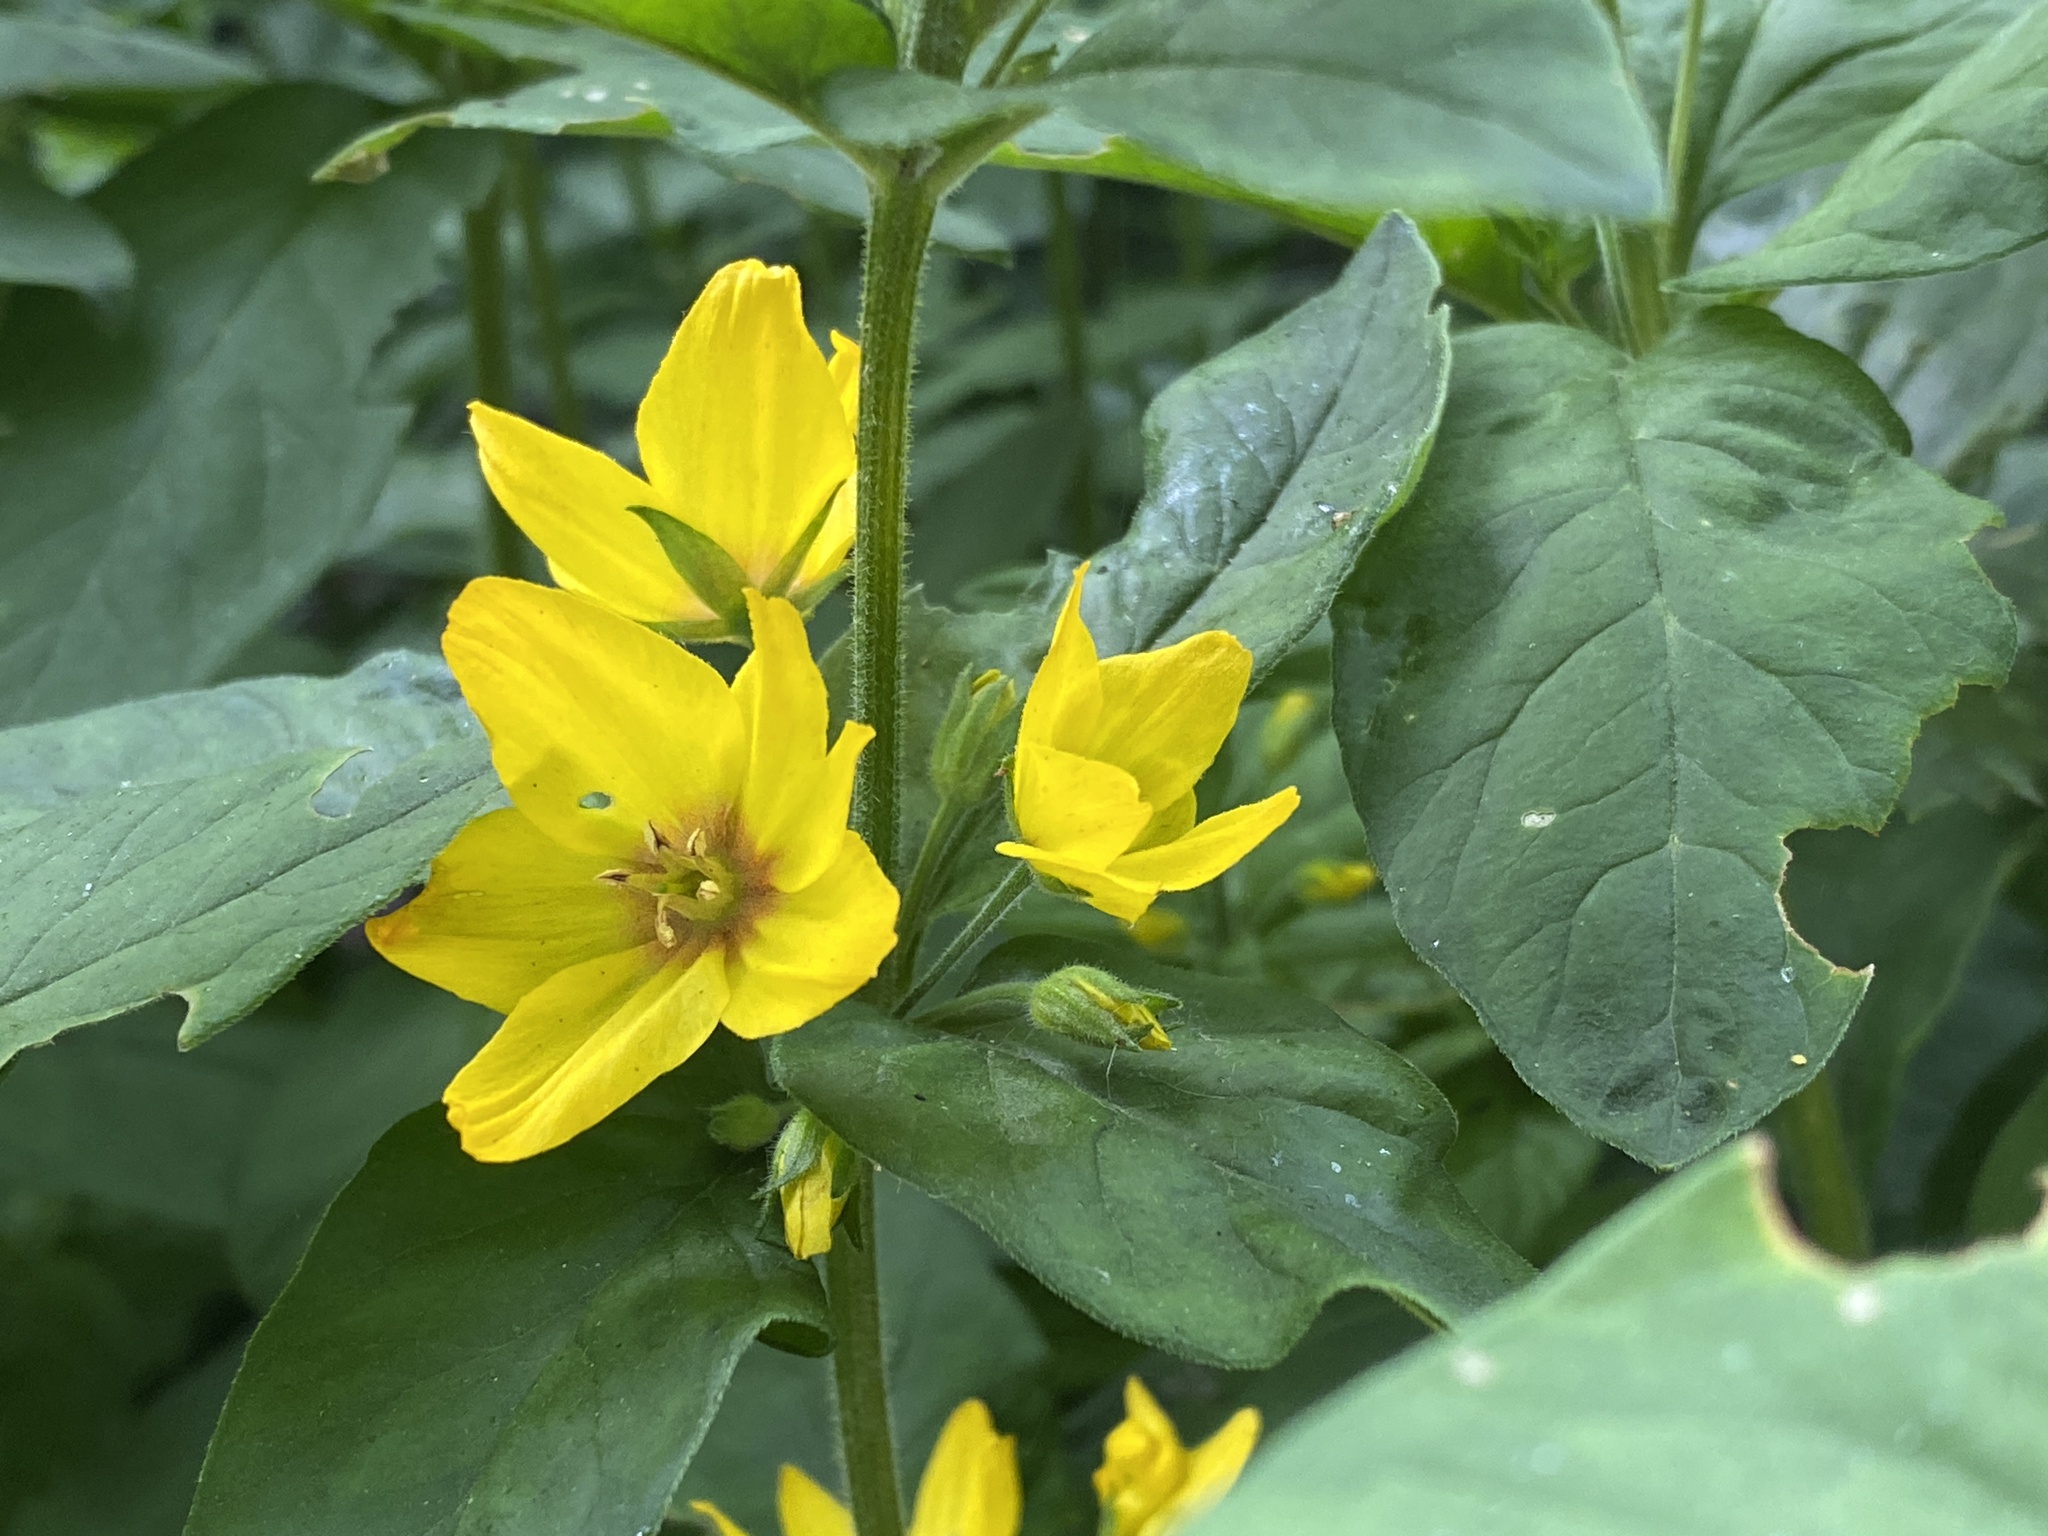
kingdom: Plantae
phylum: Tracheophyta
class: Magnoliopsida
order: Ericales
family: Primulaceae
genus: Lysimachia
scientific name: Lysimachia punctata
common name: Dotted loosestrife
